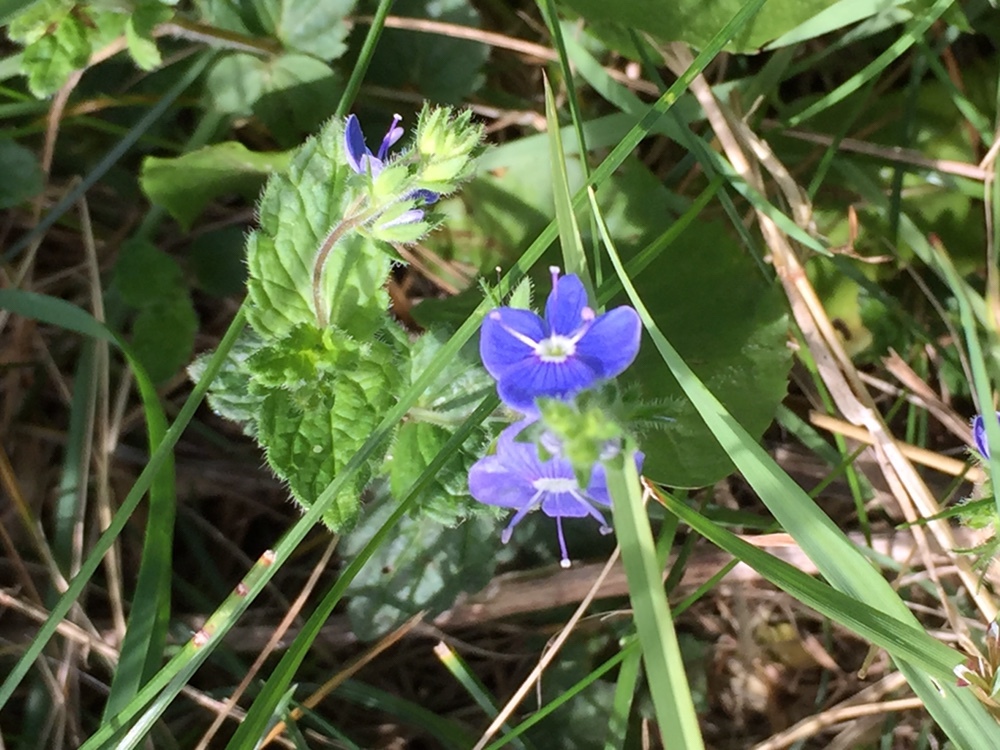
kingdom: Plantae
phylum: Tracheophyta
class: Magnoliopsida
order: Lamiales
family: Plantaginaceae
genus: Veronica
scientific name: Veronica chamaedrys
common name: Germander speedwell
